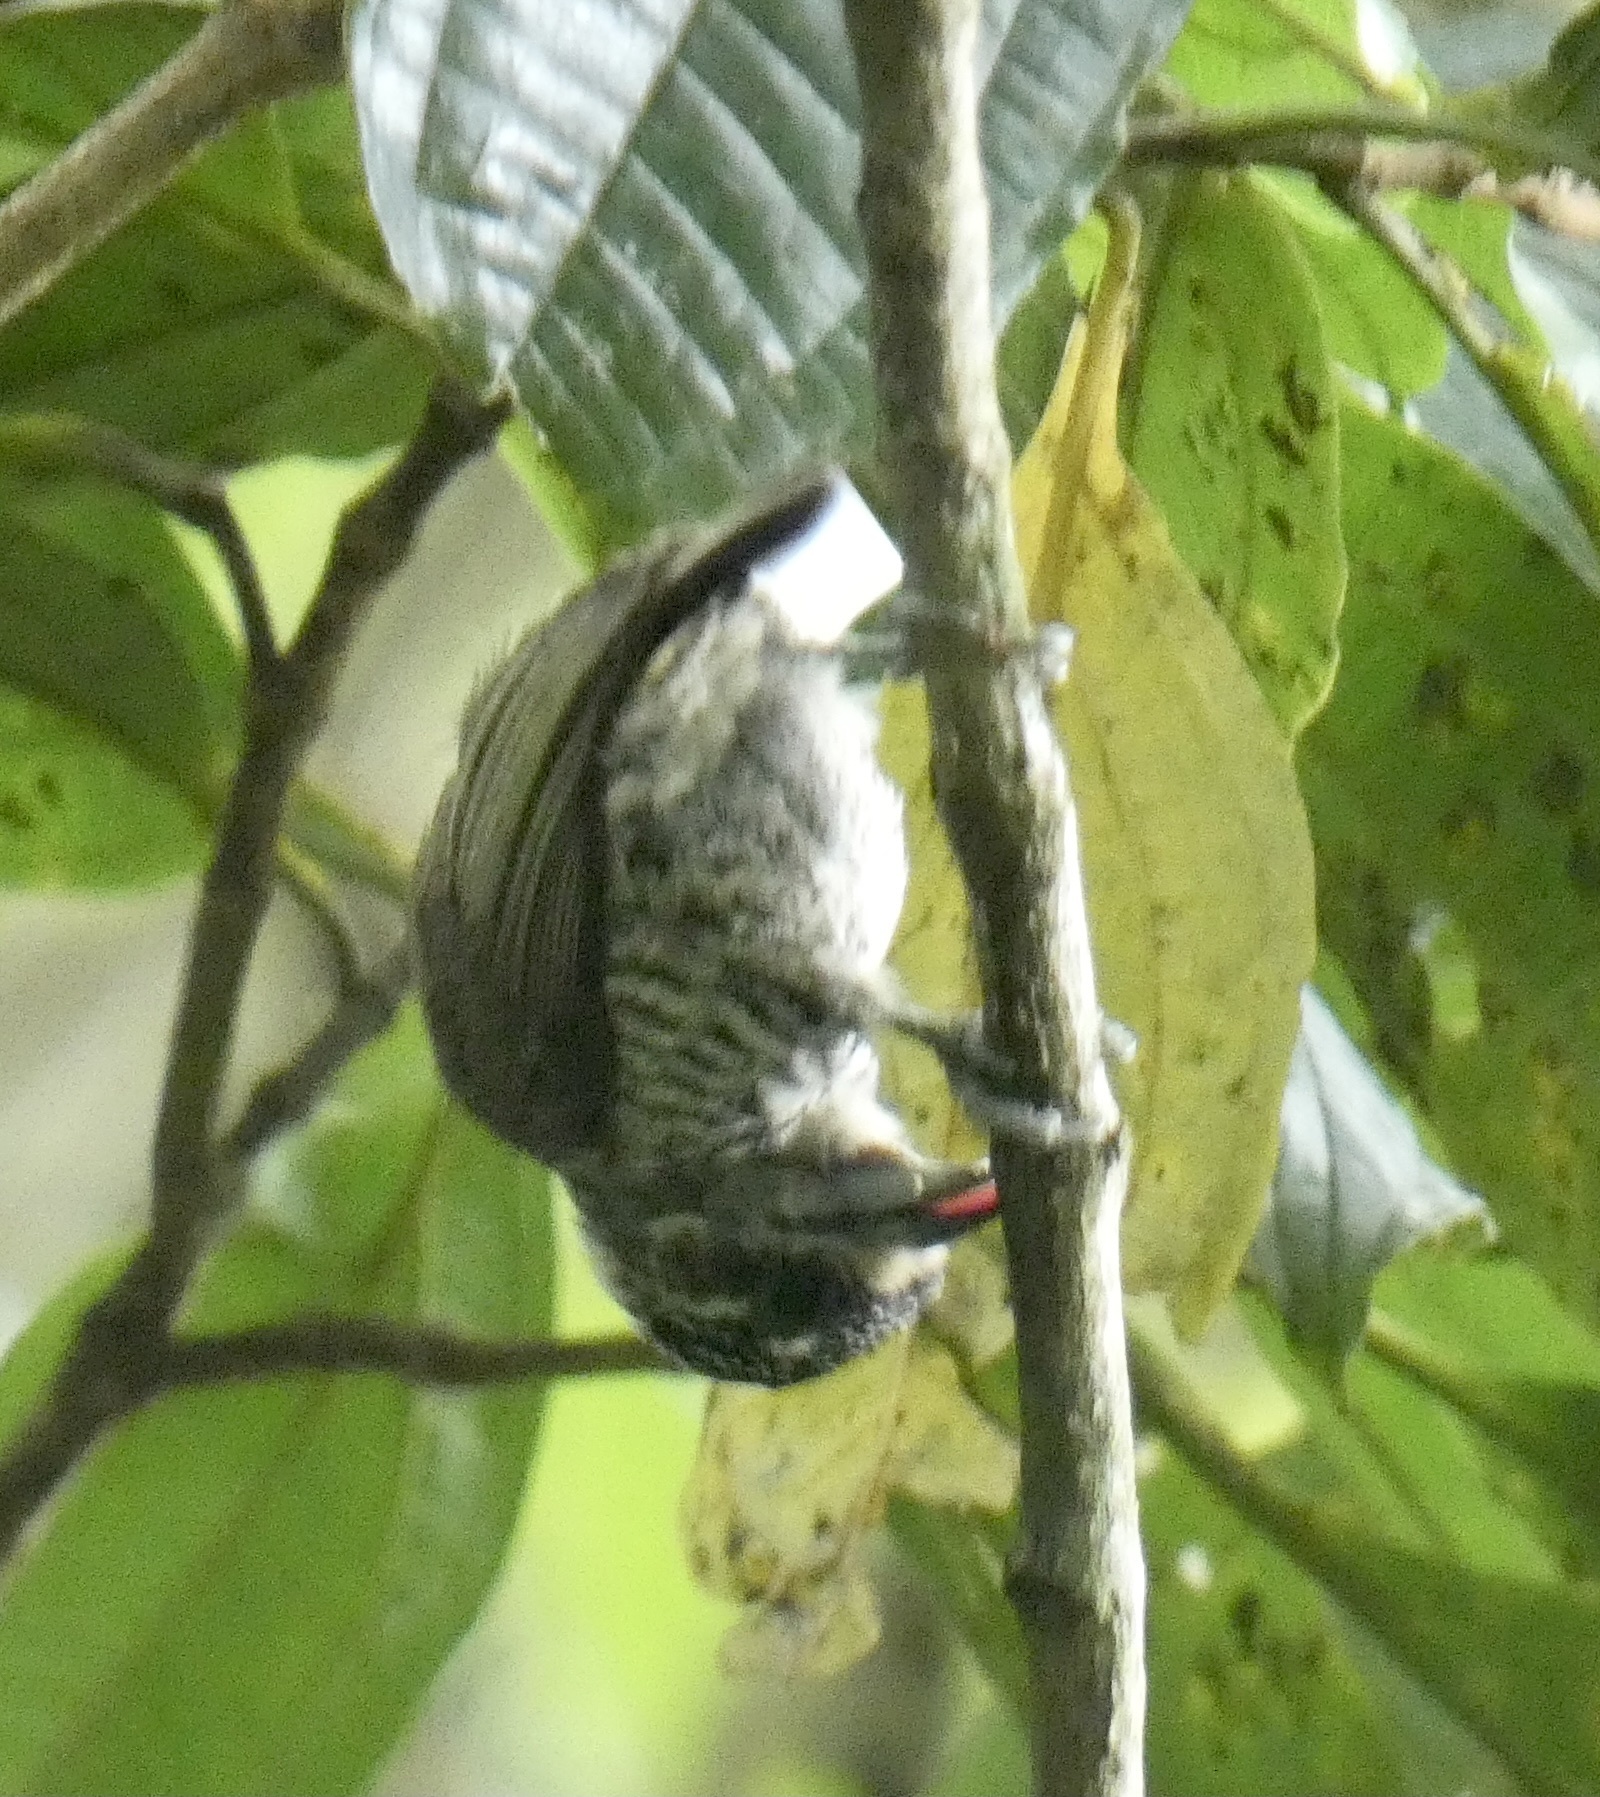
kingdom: Animalia
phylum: Chordata
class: Aves
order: Piciformes
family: Picidae
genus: Picumnus
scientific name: Picumnus cirratus
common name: White-barred piculet
